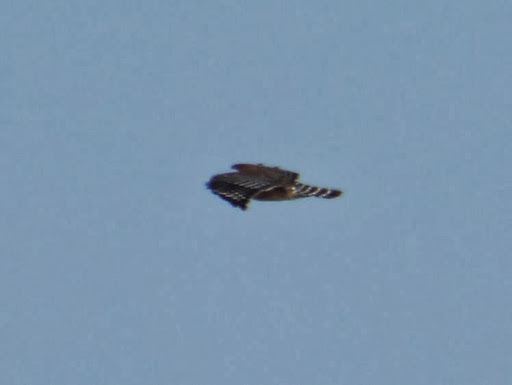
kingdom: Animalia
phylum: Chordata
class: Aves
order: Accipitriformes
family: Accipitridae
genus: Buteo
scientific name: Buteo lineatus
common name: Red-shouldered hawk
